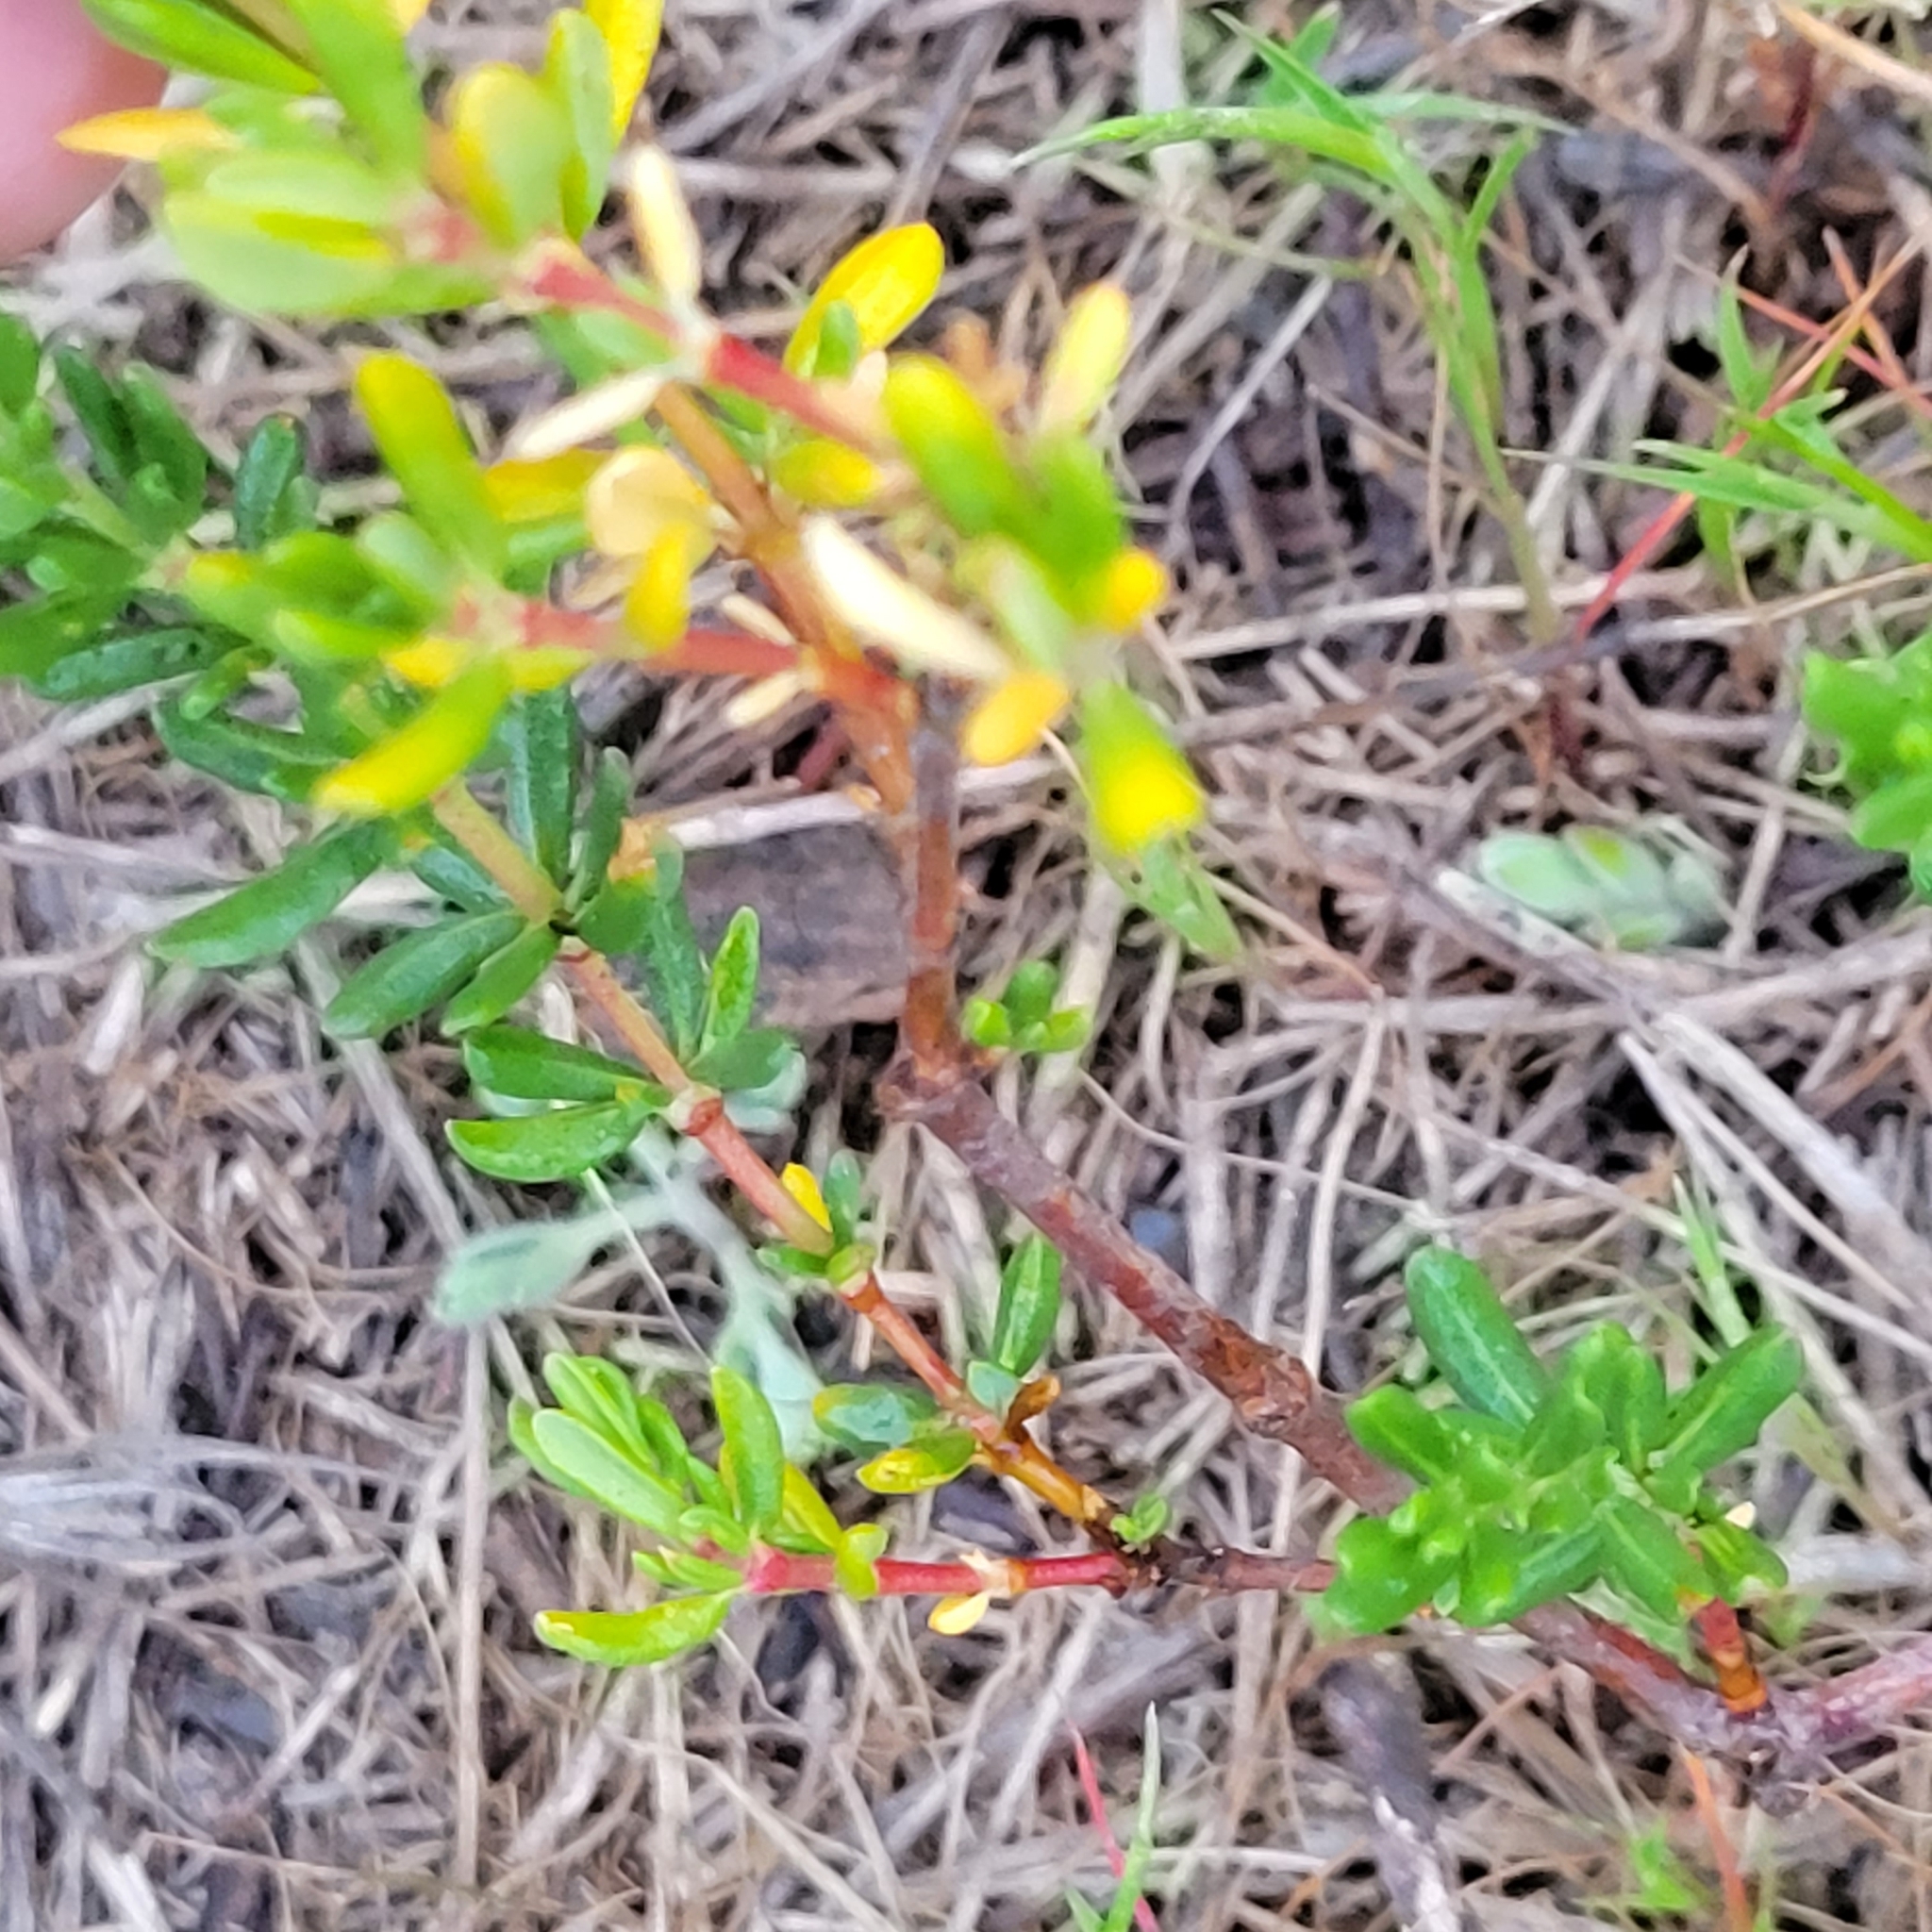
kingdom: Plantae
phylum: Tracheophyta
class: Magnoliopsida
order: Caryophyllales
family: Frankeniaceae
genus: Frankenia
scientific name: Frankenia salina
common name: Alkali seaheath
